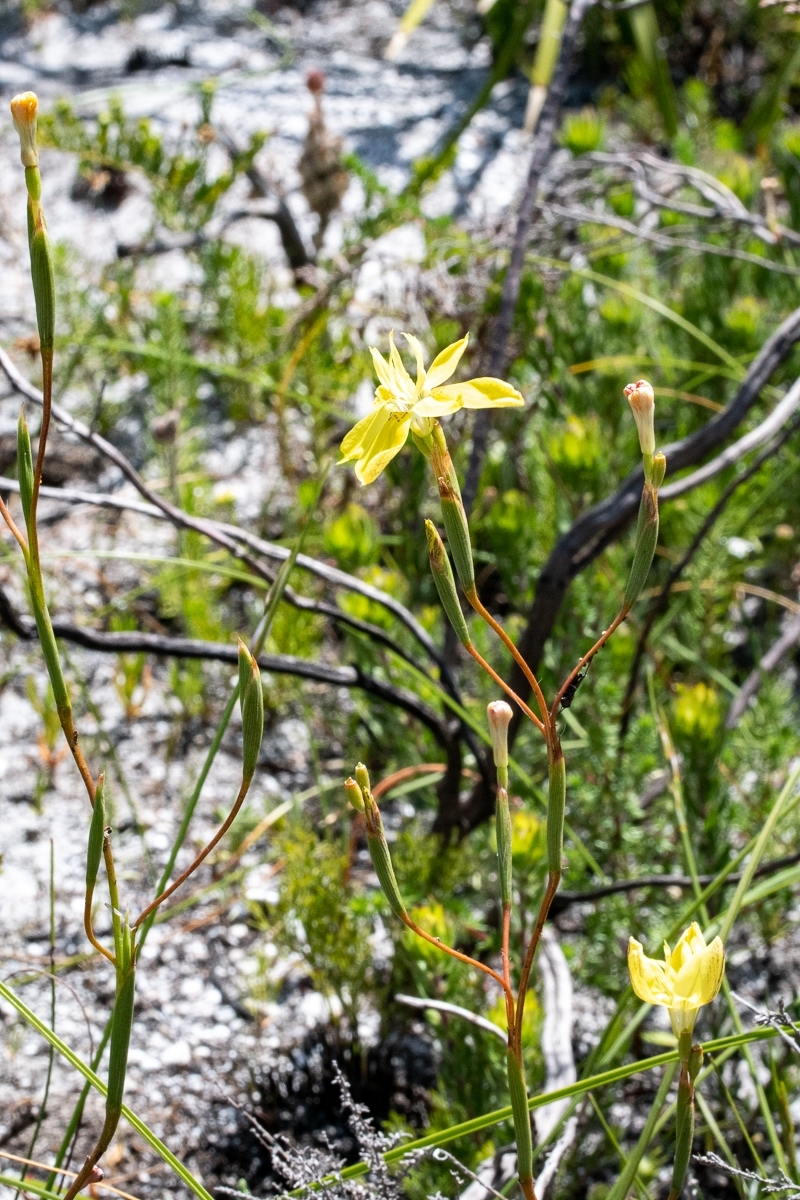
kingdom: Plantae
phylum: Tracheophyta
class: Liliopsida
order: Asparagales
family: Iridaceae
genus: Moraea
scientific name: Moraea bituminosa
